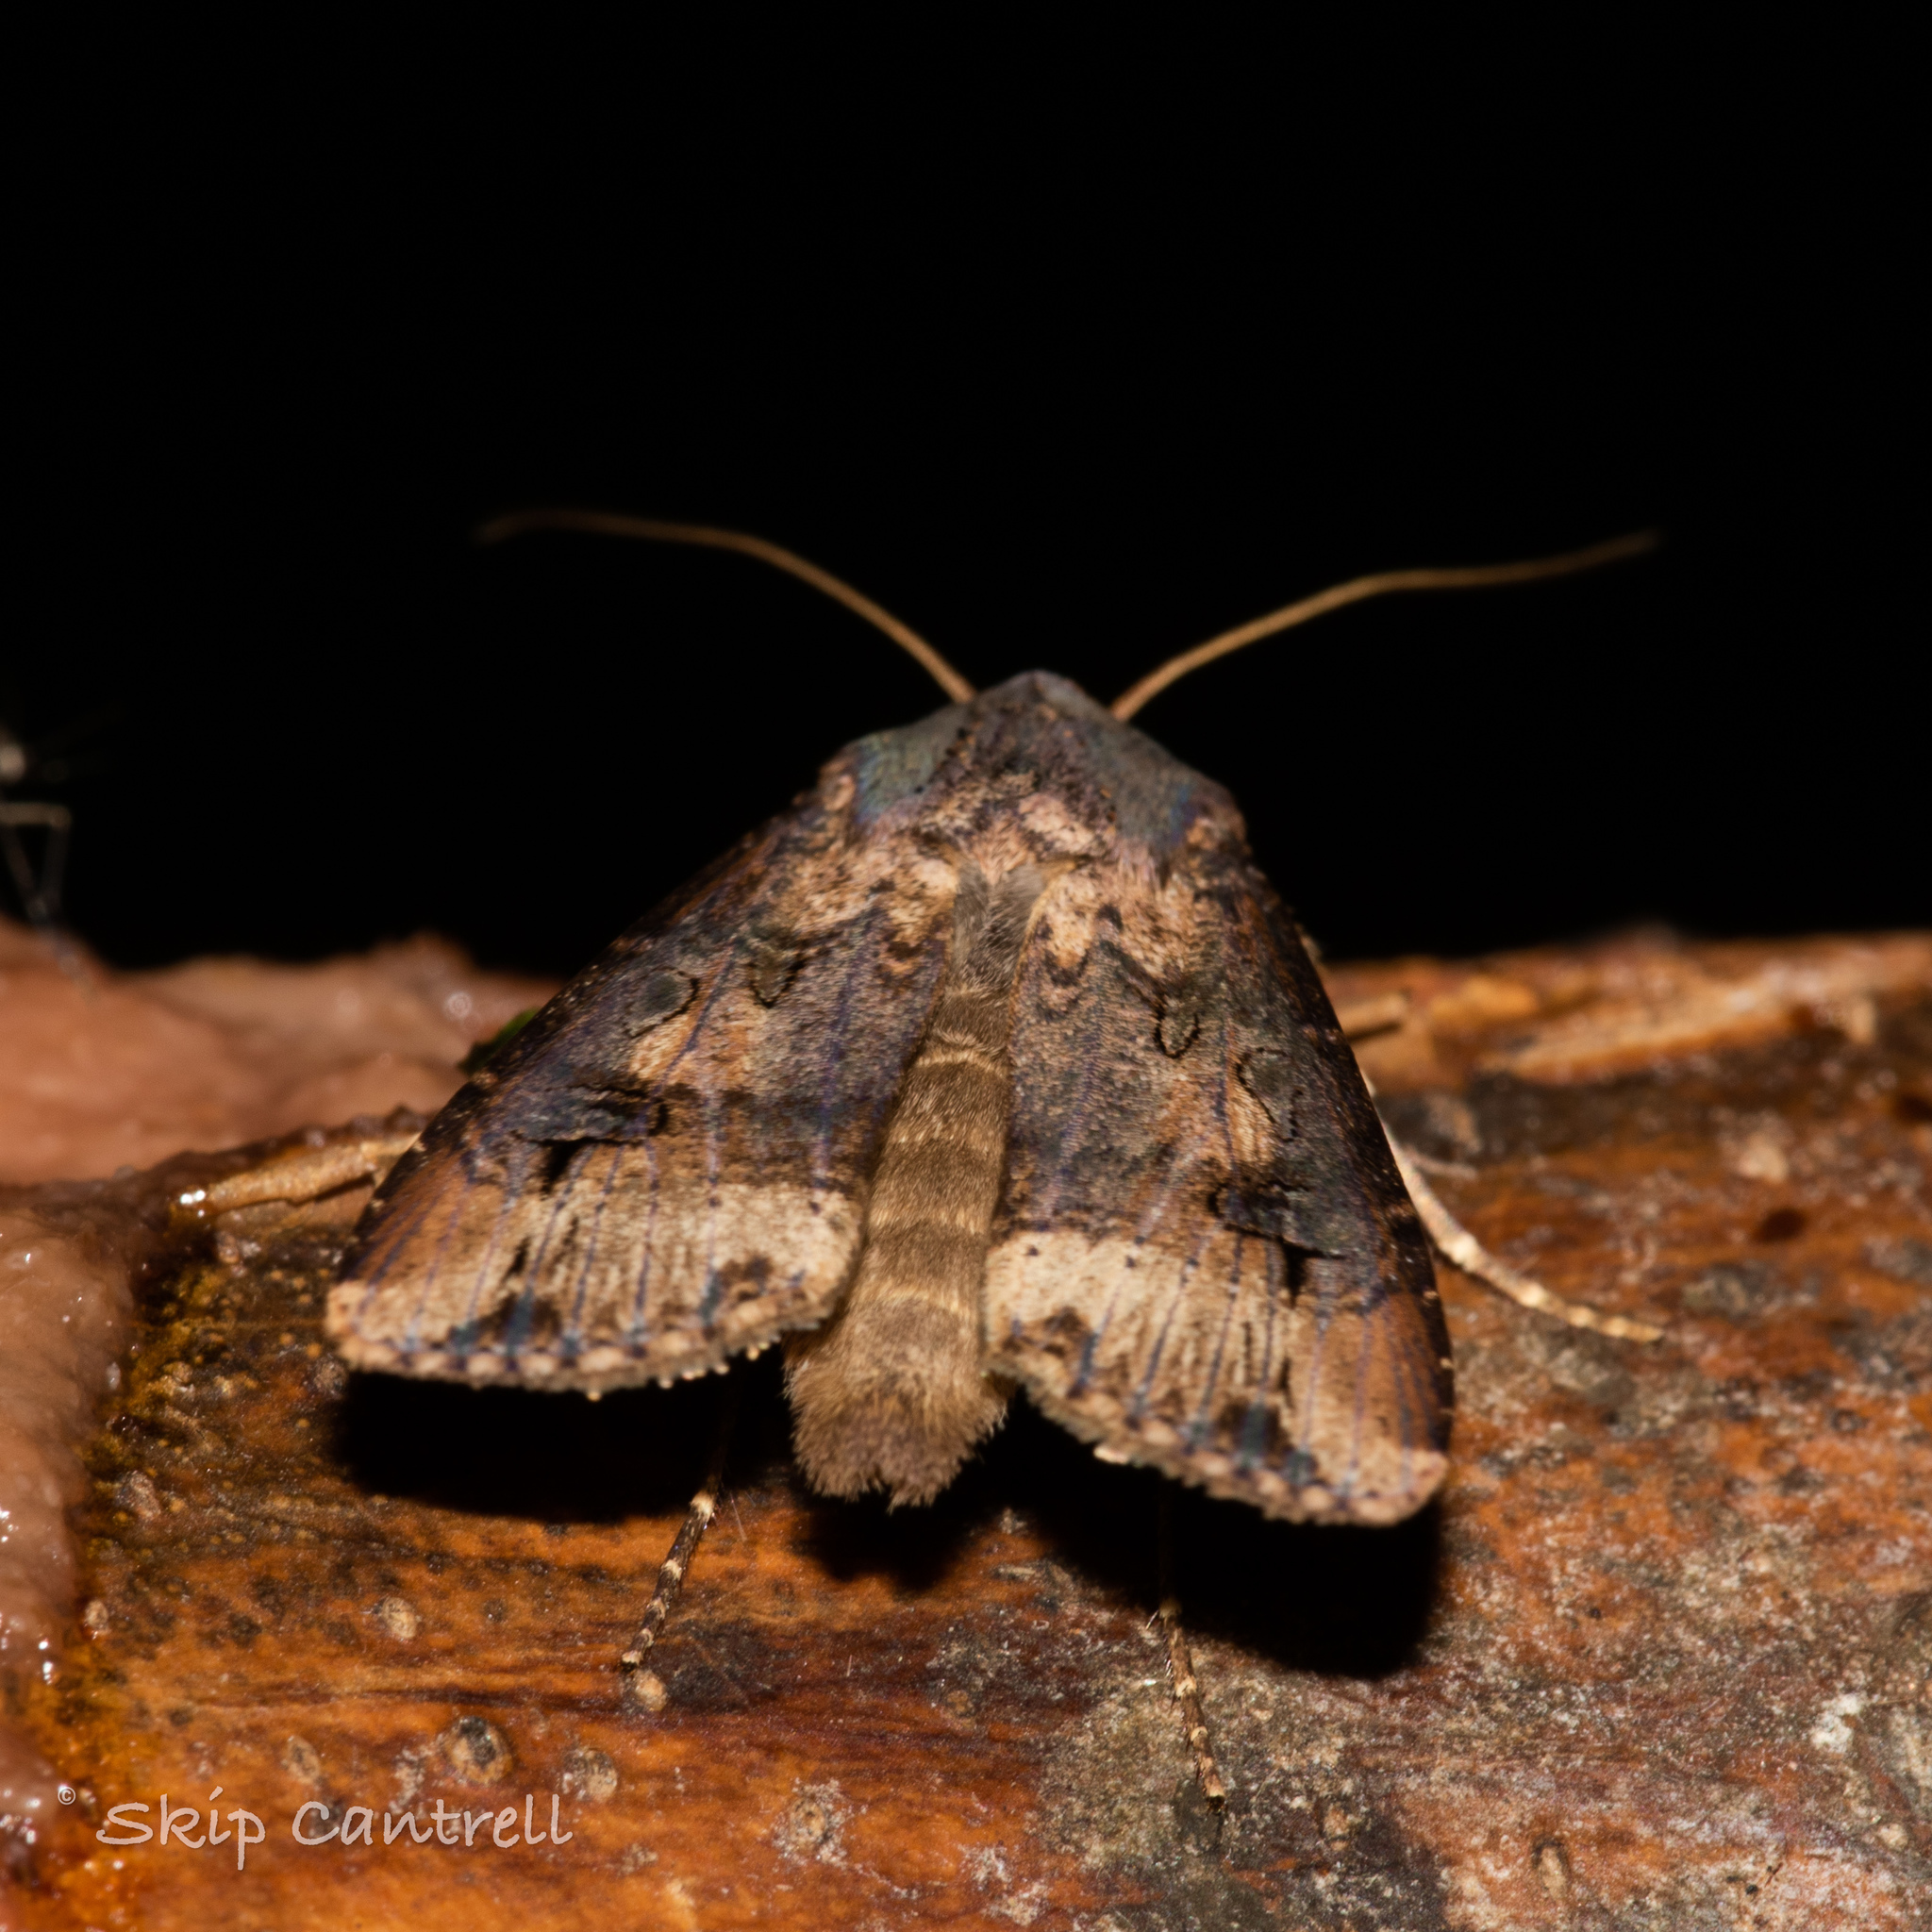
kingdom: Animalia
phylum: Arthropoda
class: Insecta
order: Lepidoptera
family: Noctuidae
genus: Agrotis
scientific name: Agrotis ipsilon
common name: Dark sword-grass
